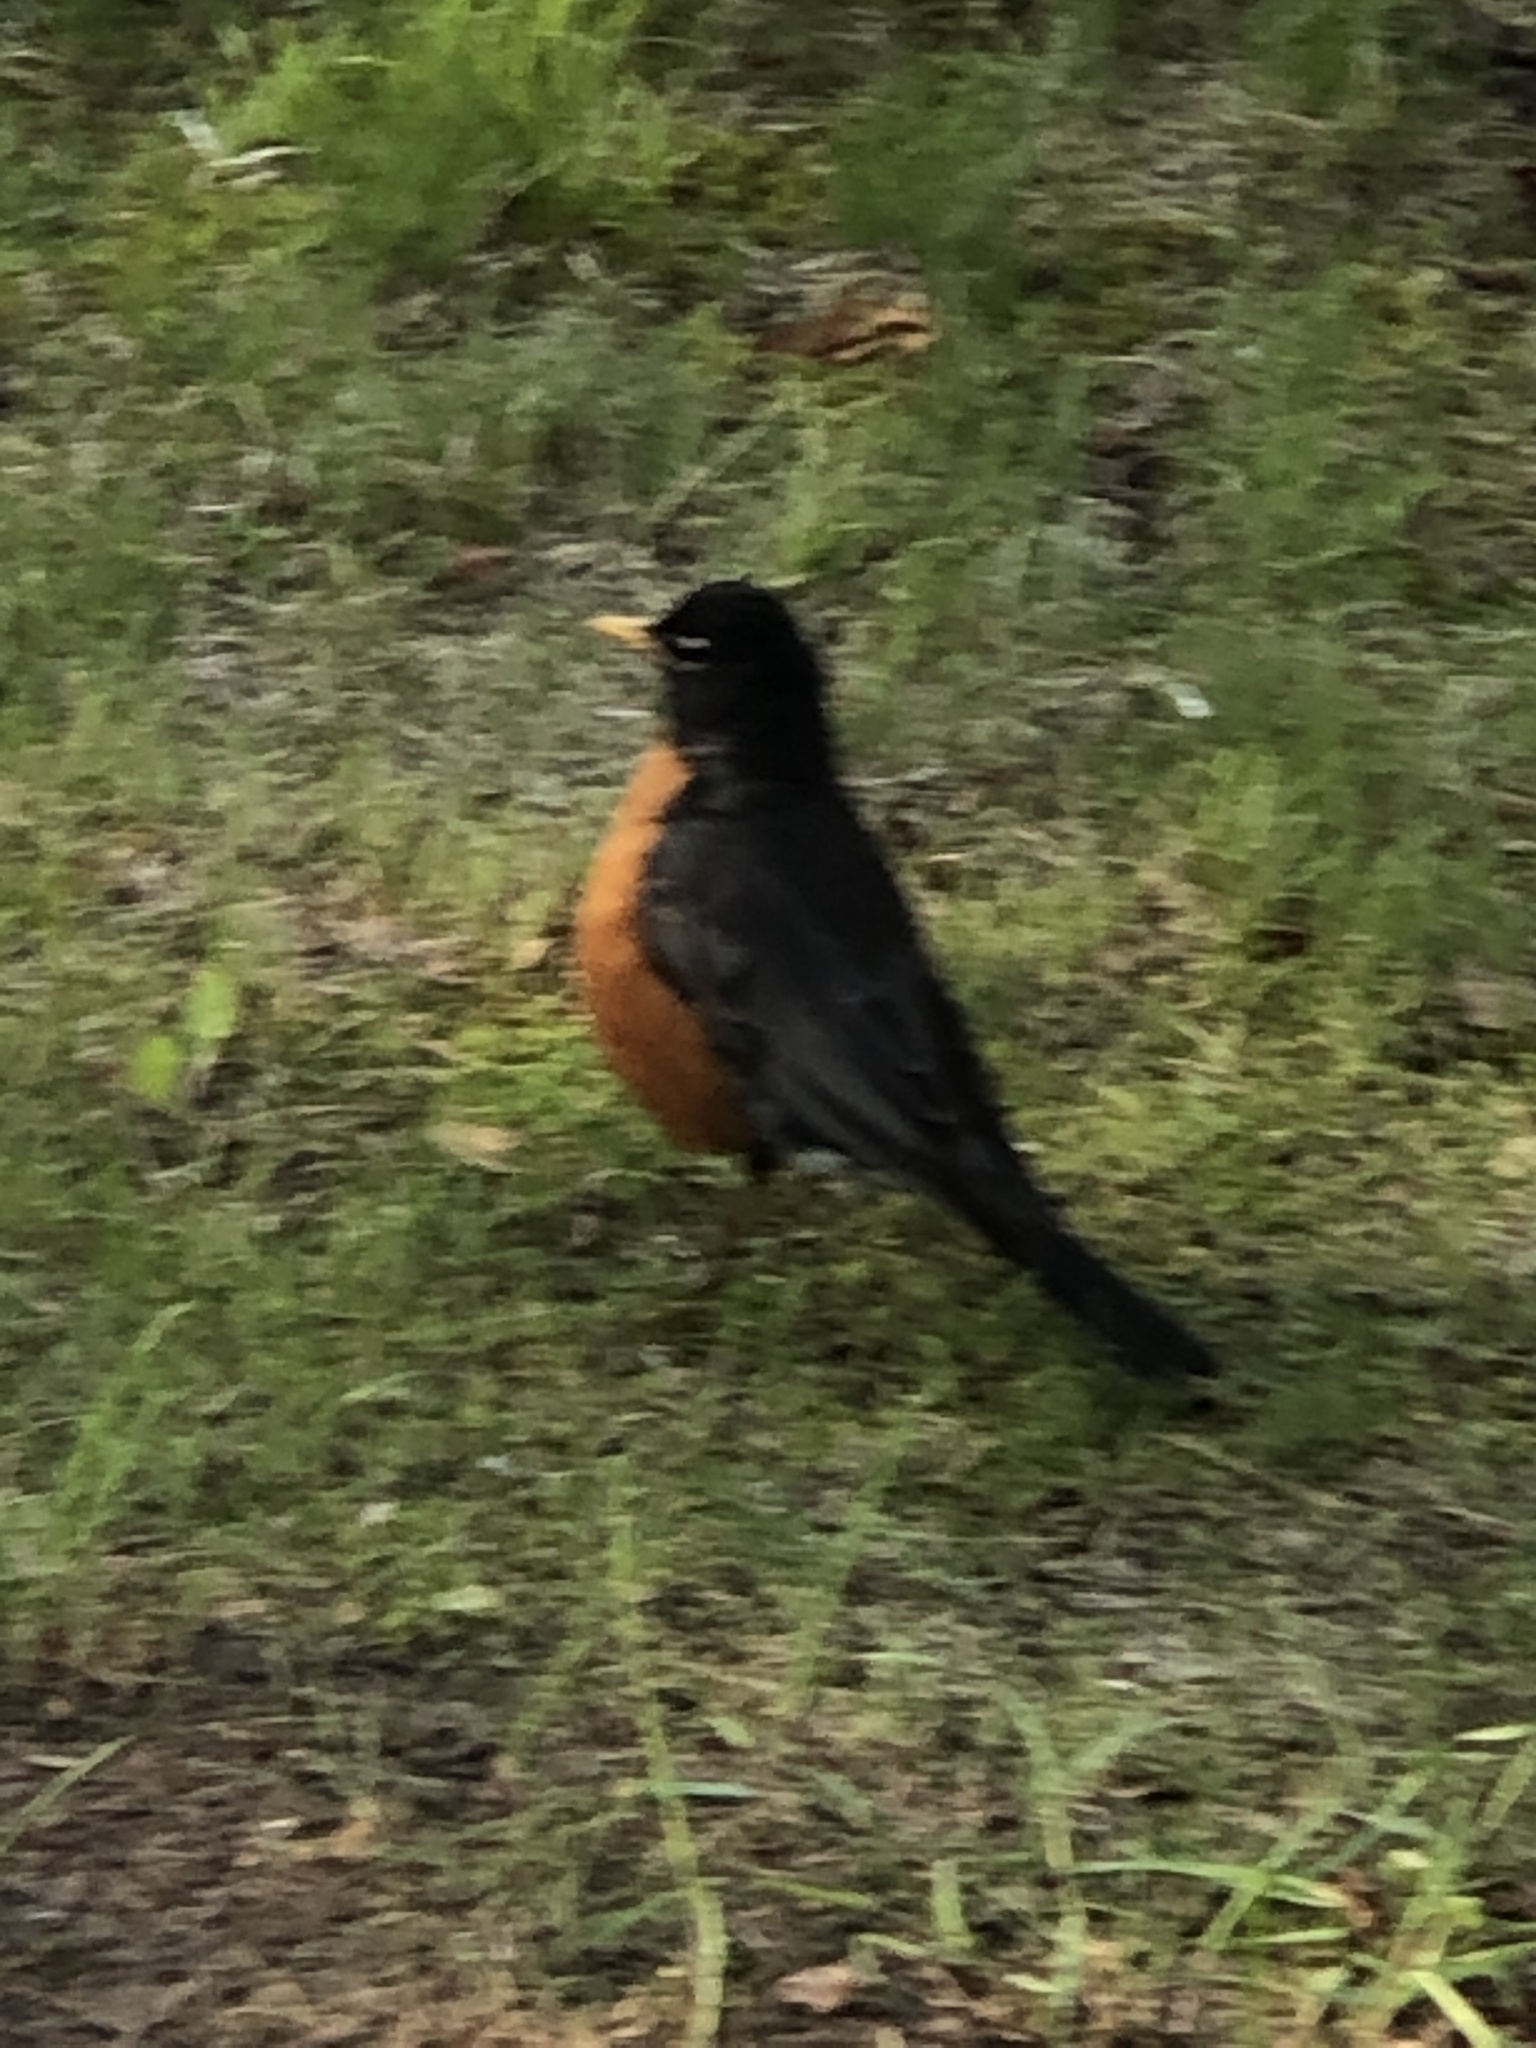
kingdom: Animalia
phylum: Chordata
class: Aves
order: Passeriformes
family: Turdidae
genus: Turdus
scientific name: Turdus migratorius
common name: American robin
